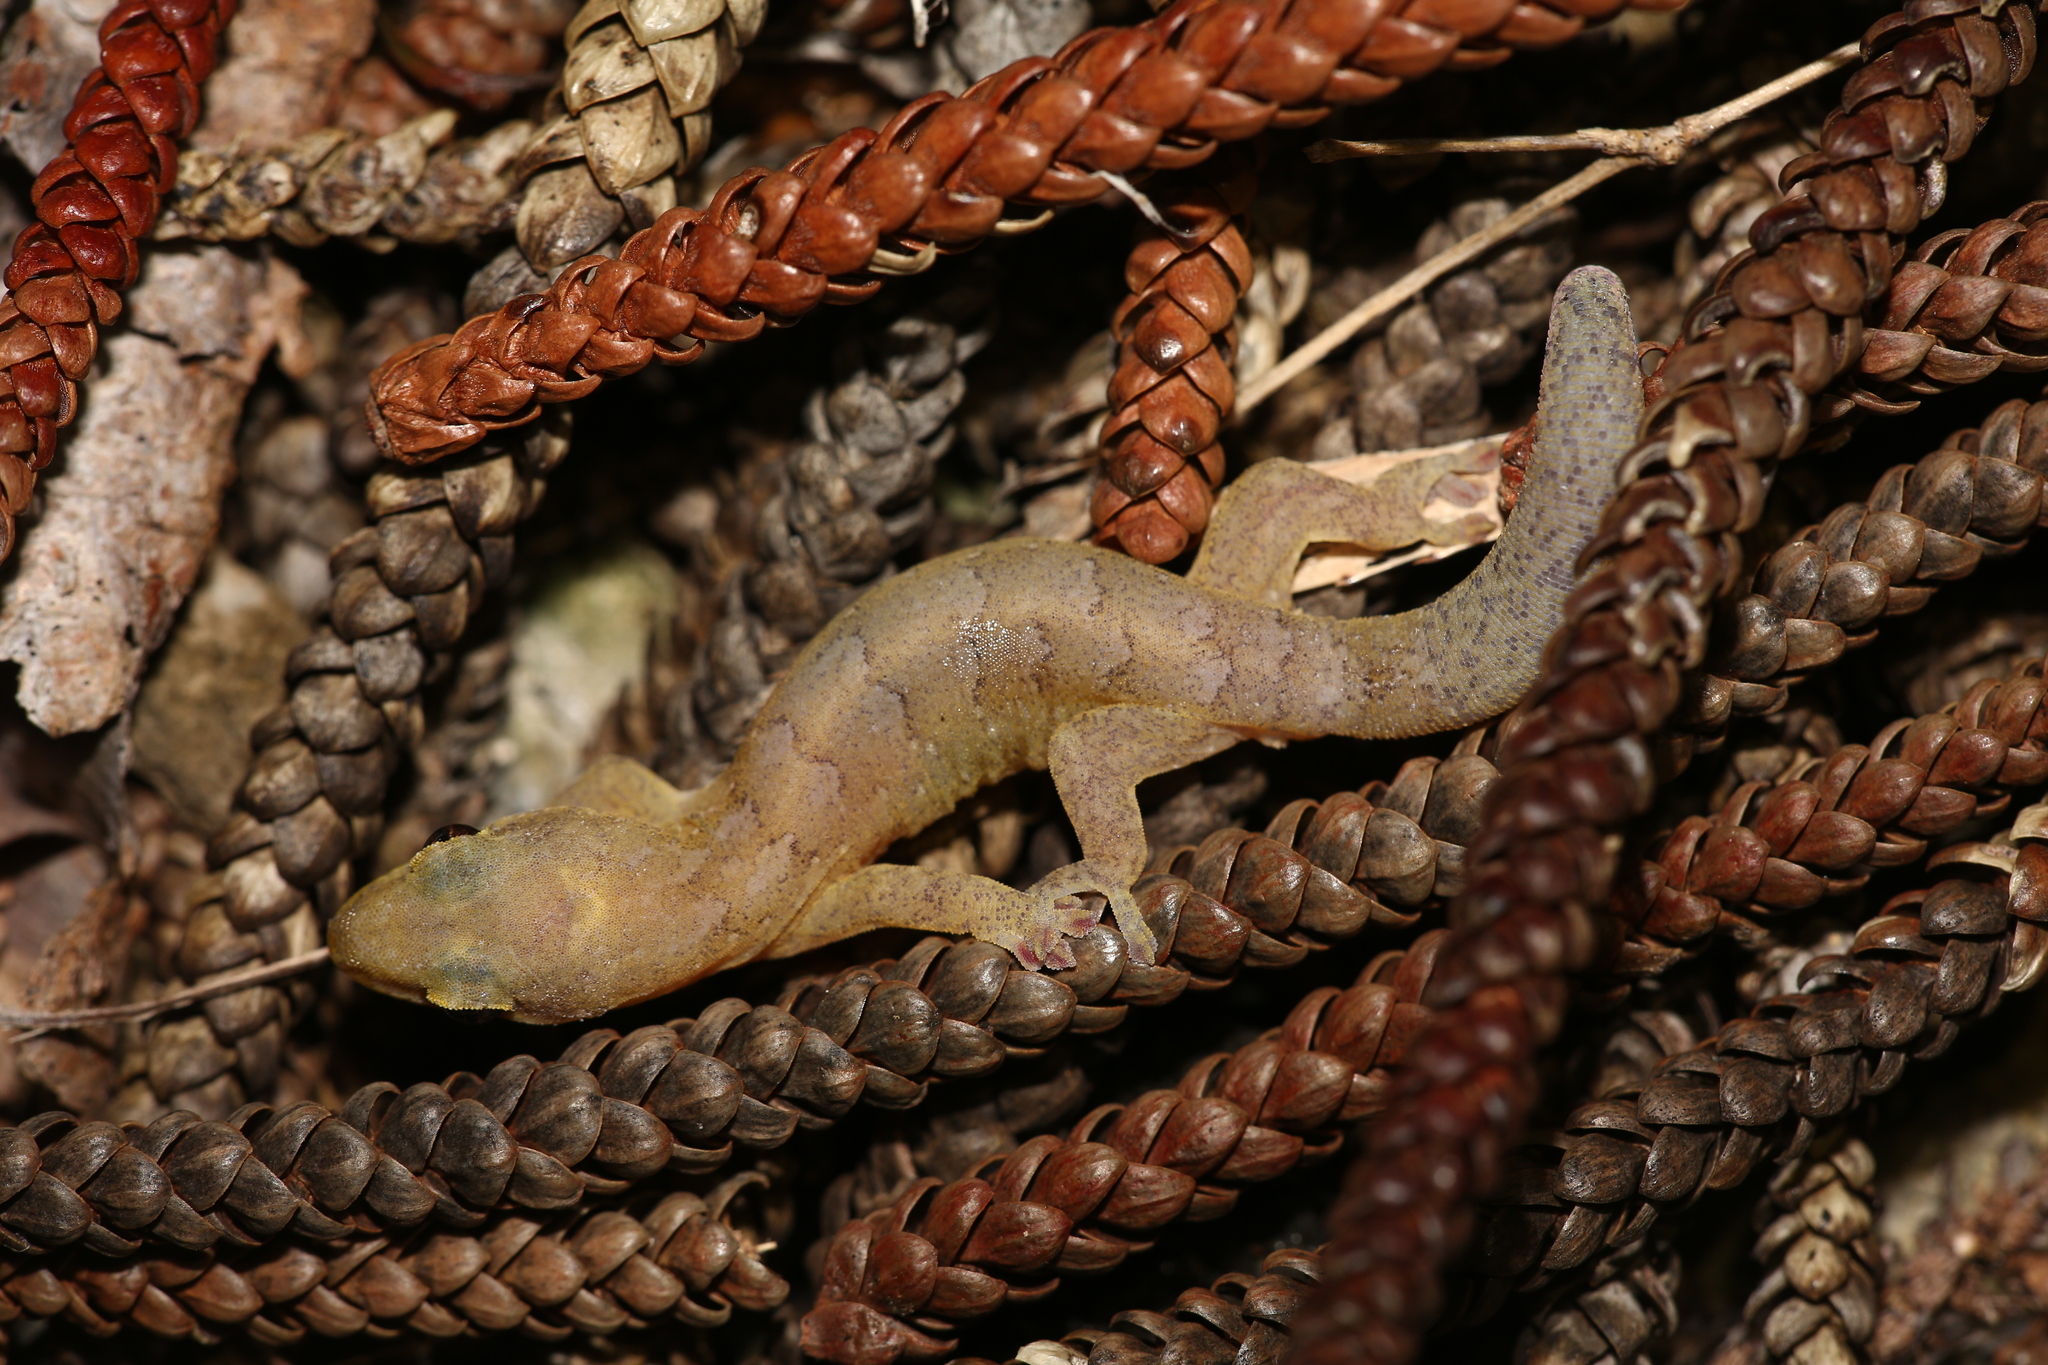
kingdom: Animalia
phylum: Chordata
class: Squamata
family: Diplodactylidae
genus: Bavayia
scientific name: Bavayia
